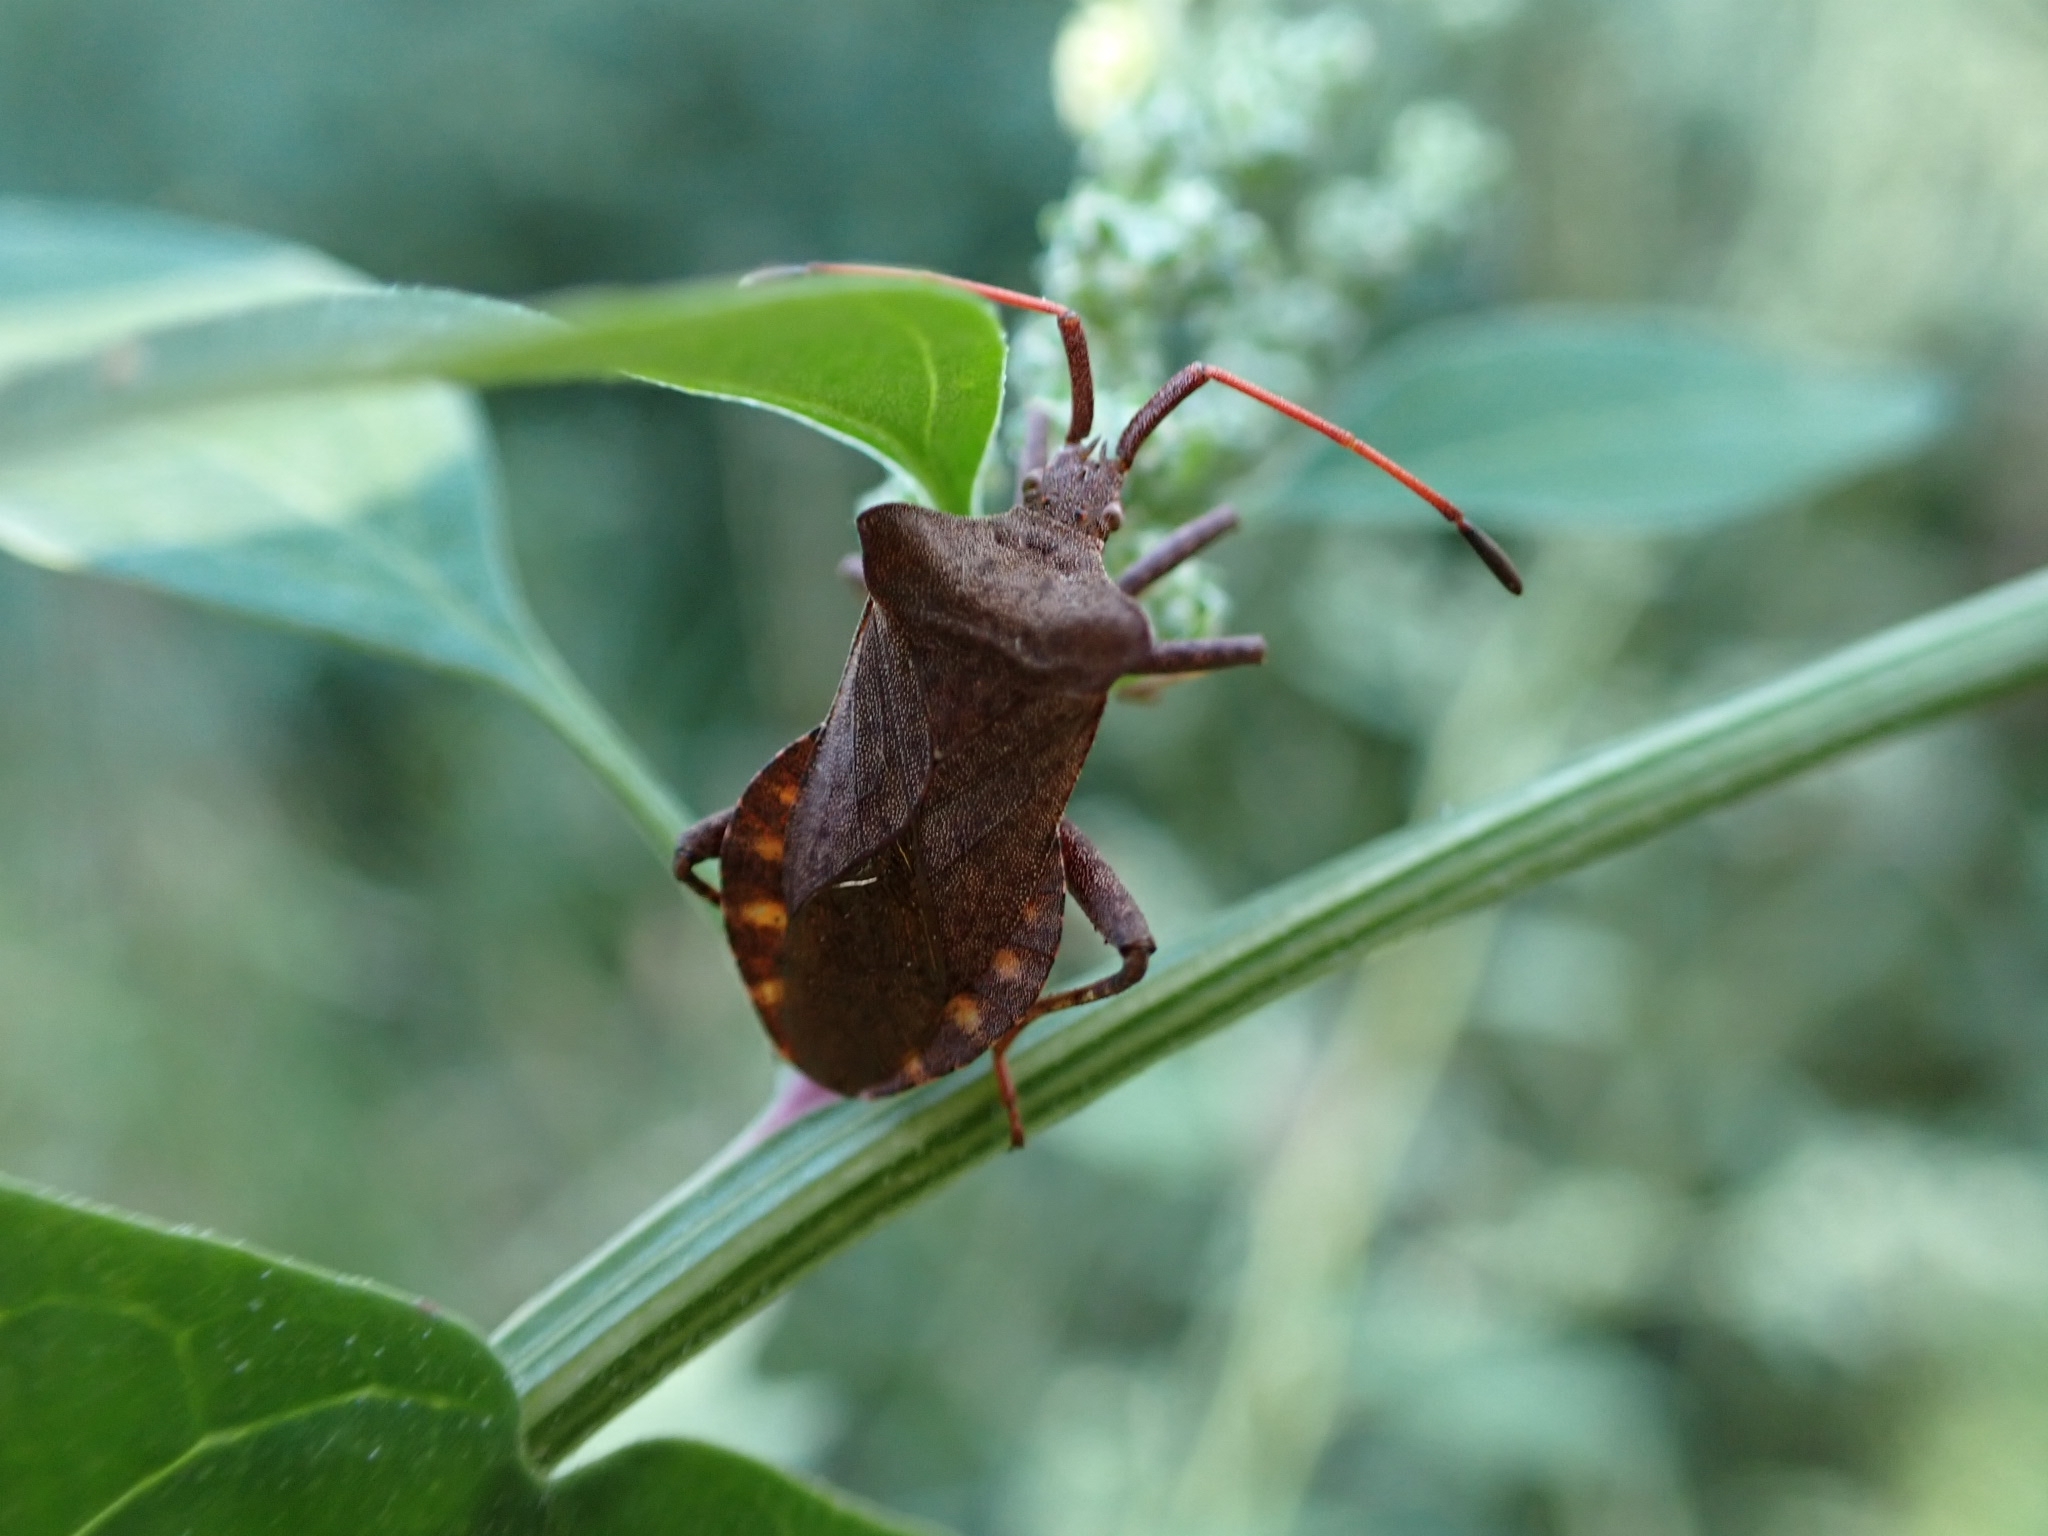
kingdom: Animalia
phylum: Arthropoda
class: Insecta
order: Hemiptera
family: Coreidae
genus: Coreus
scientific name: Coreus marginatus
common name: Dock bug
